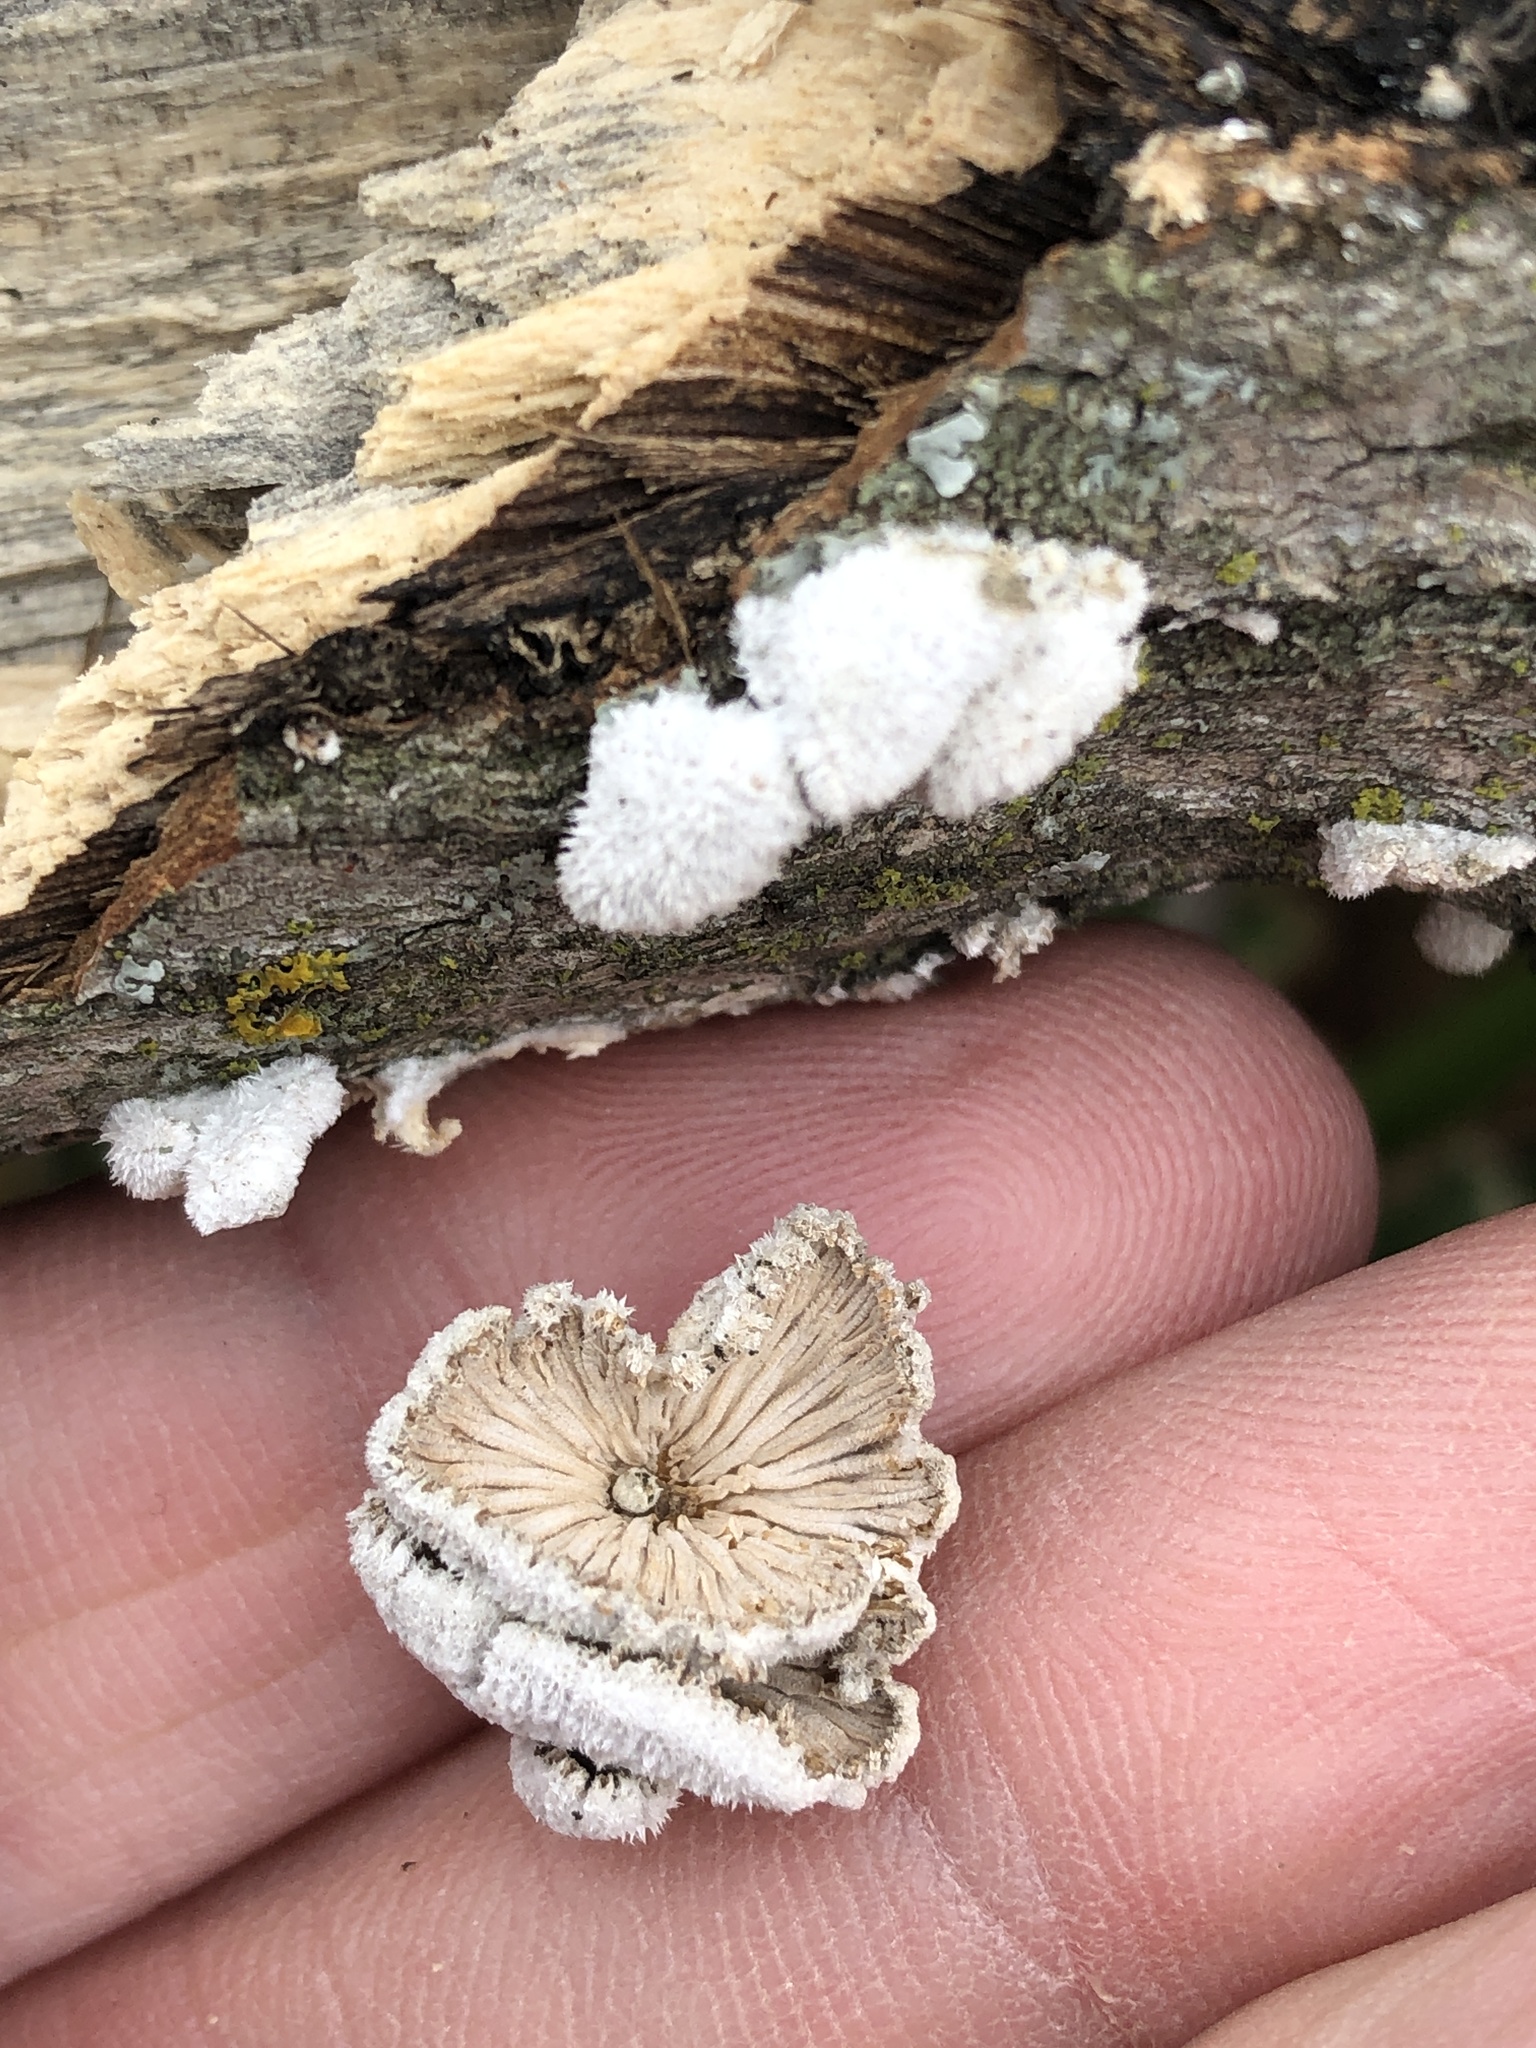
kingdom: Fungi
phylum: Basidiomycota
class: Agaricomycetes
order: Agaricales
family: Schizophyllaceae
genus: Schizophyllum
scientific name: Schizophyllum commune
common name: Common porecrust
